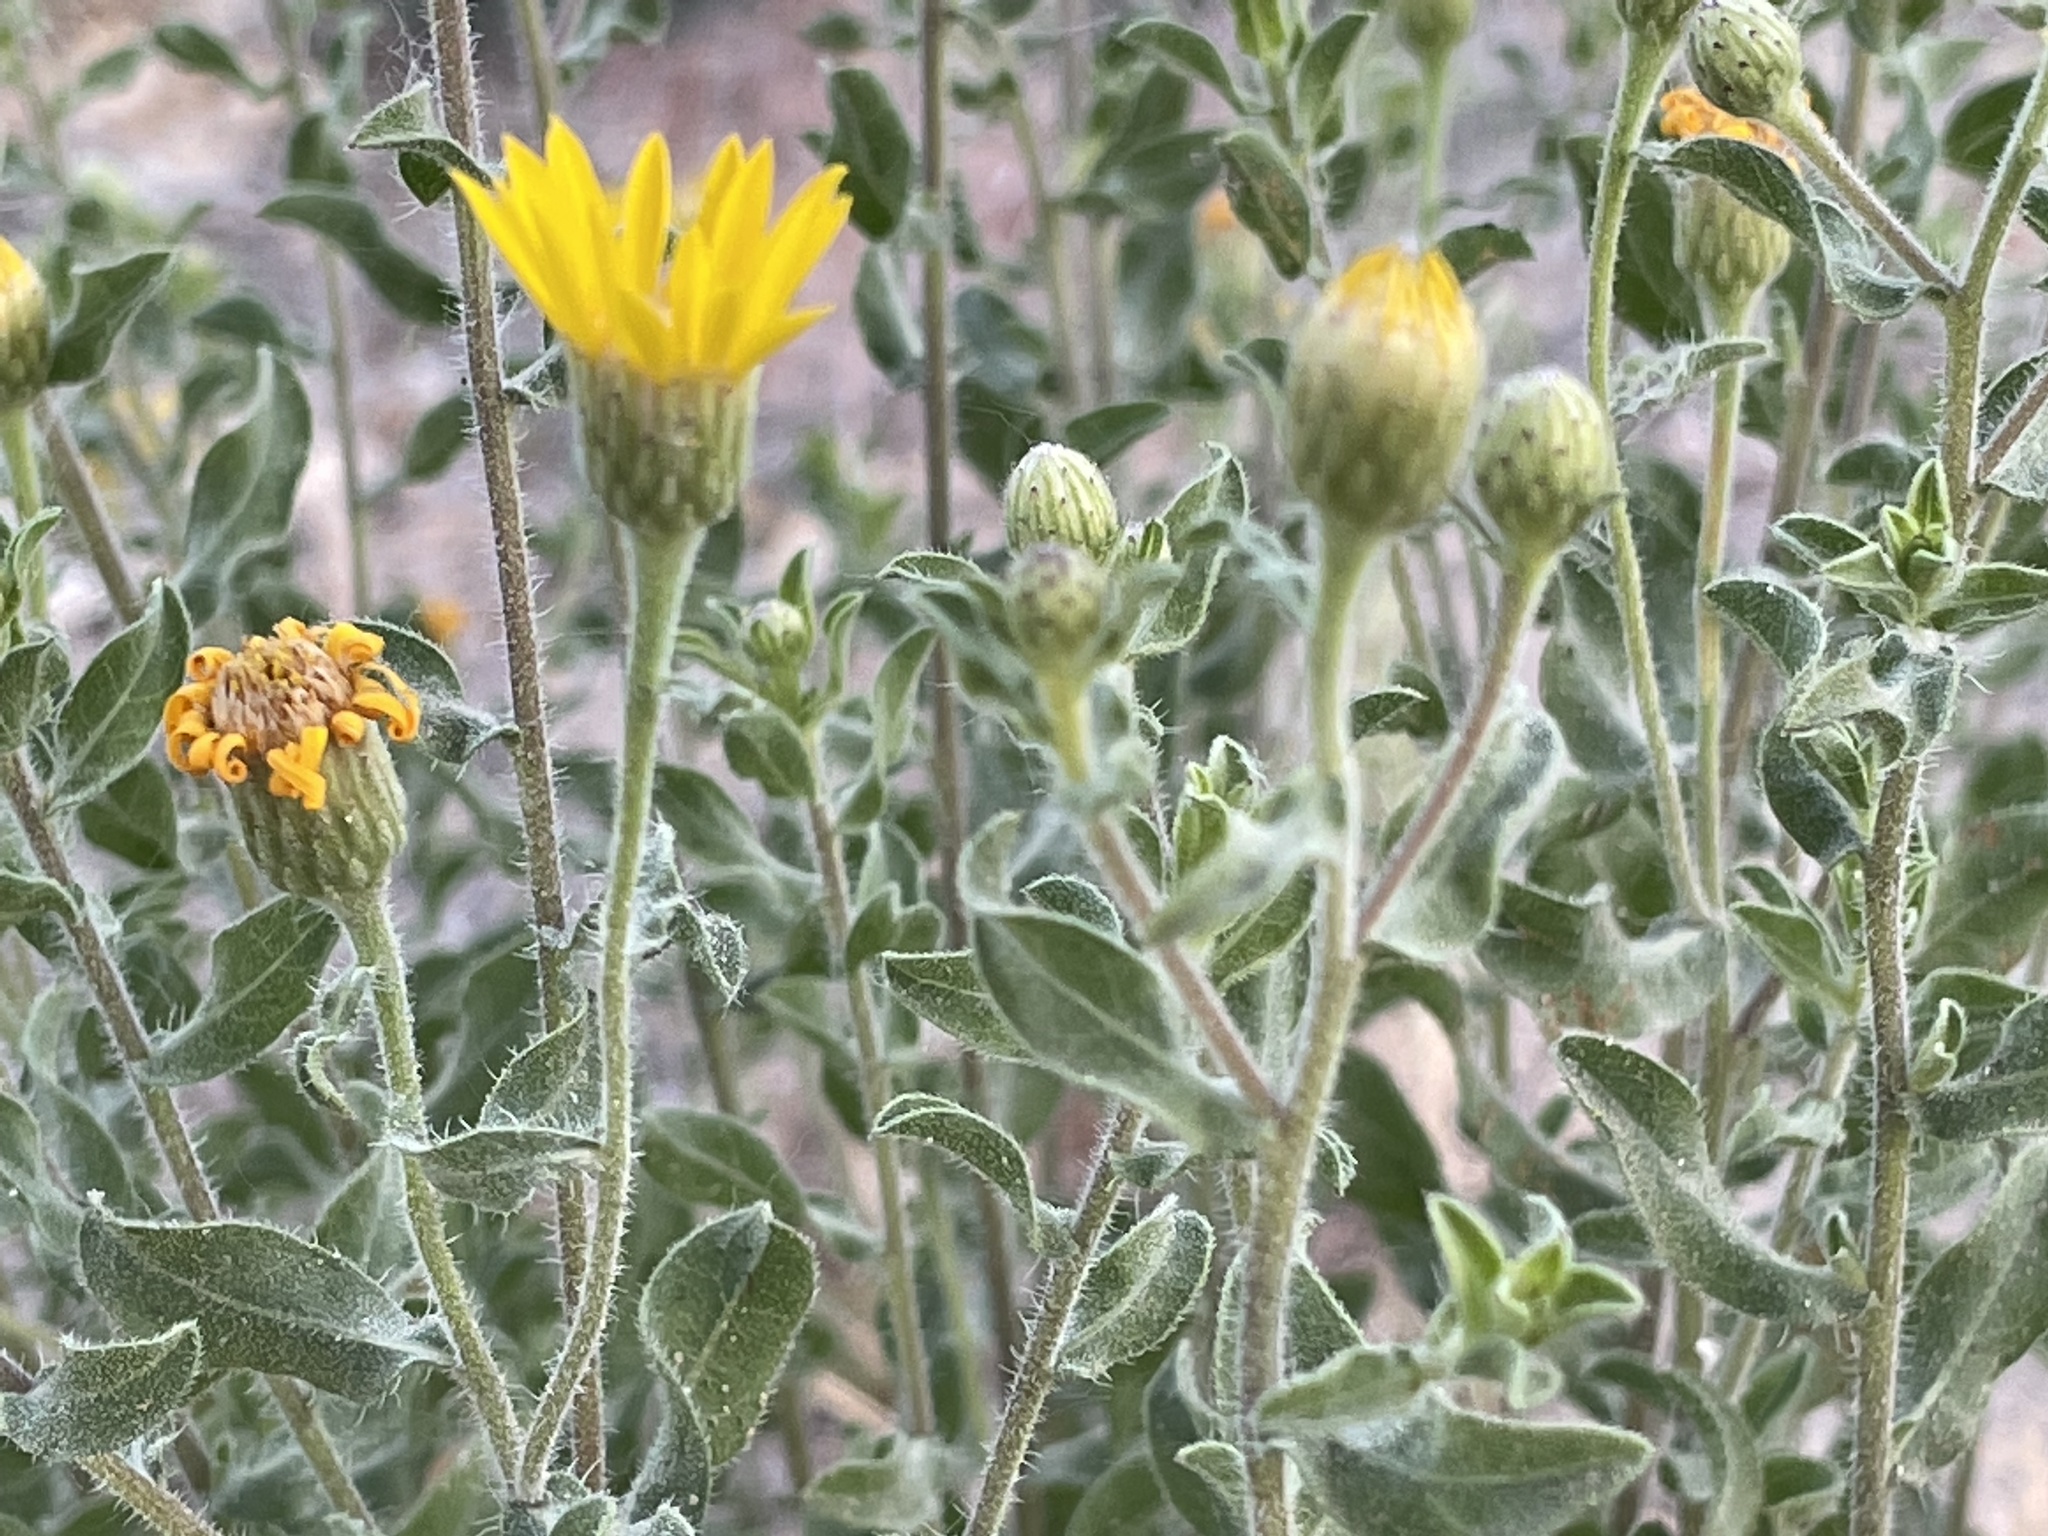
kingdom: Plantae
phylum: Tracheophyta
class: Magnoliopsida
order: Asterales
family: Asteraceae
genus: Heterotheca
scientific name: Heterotheca hirsutissima
